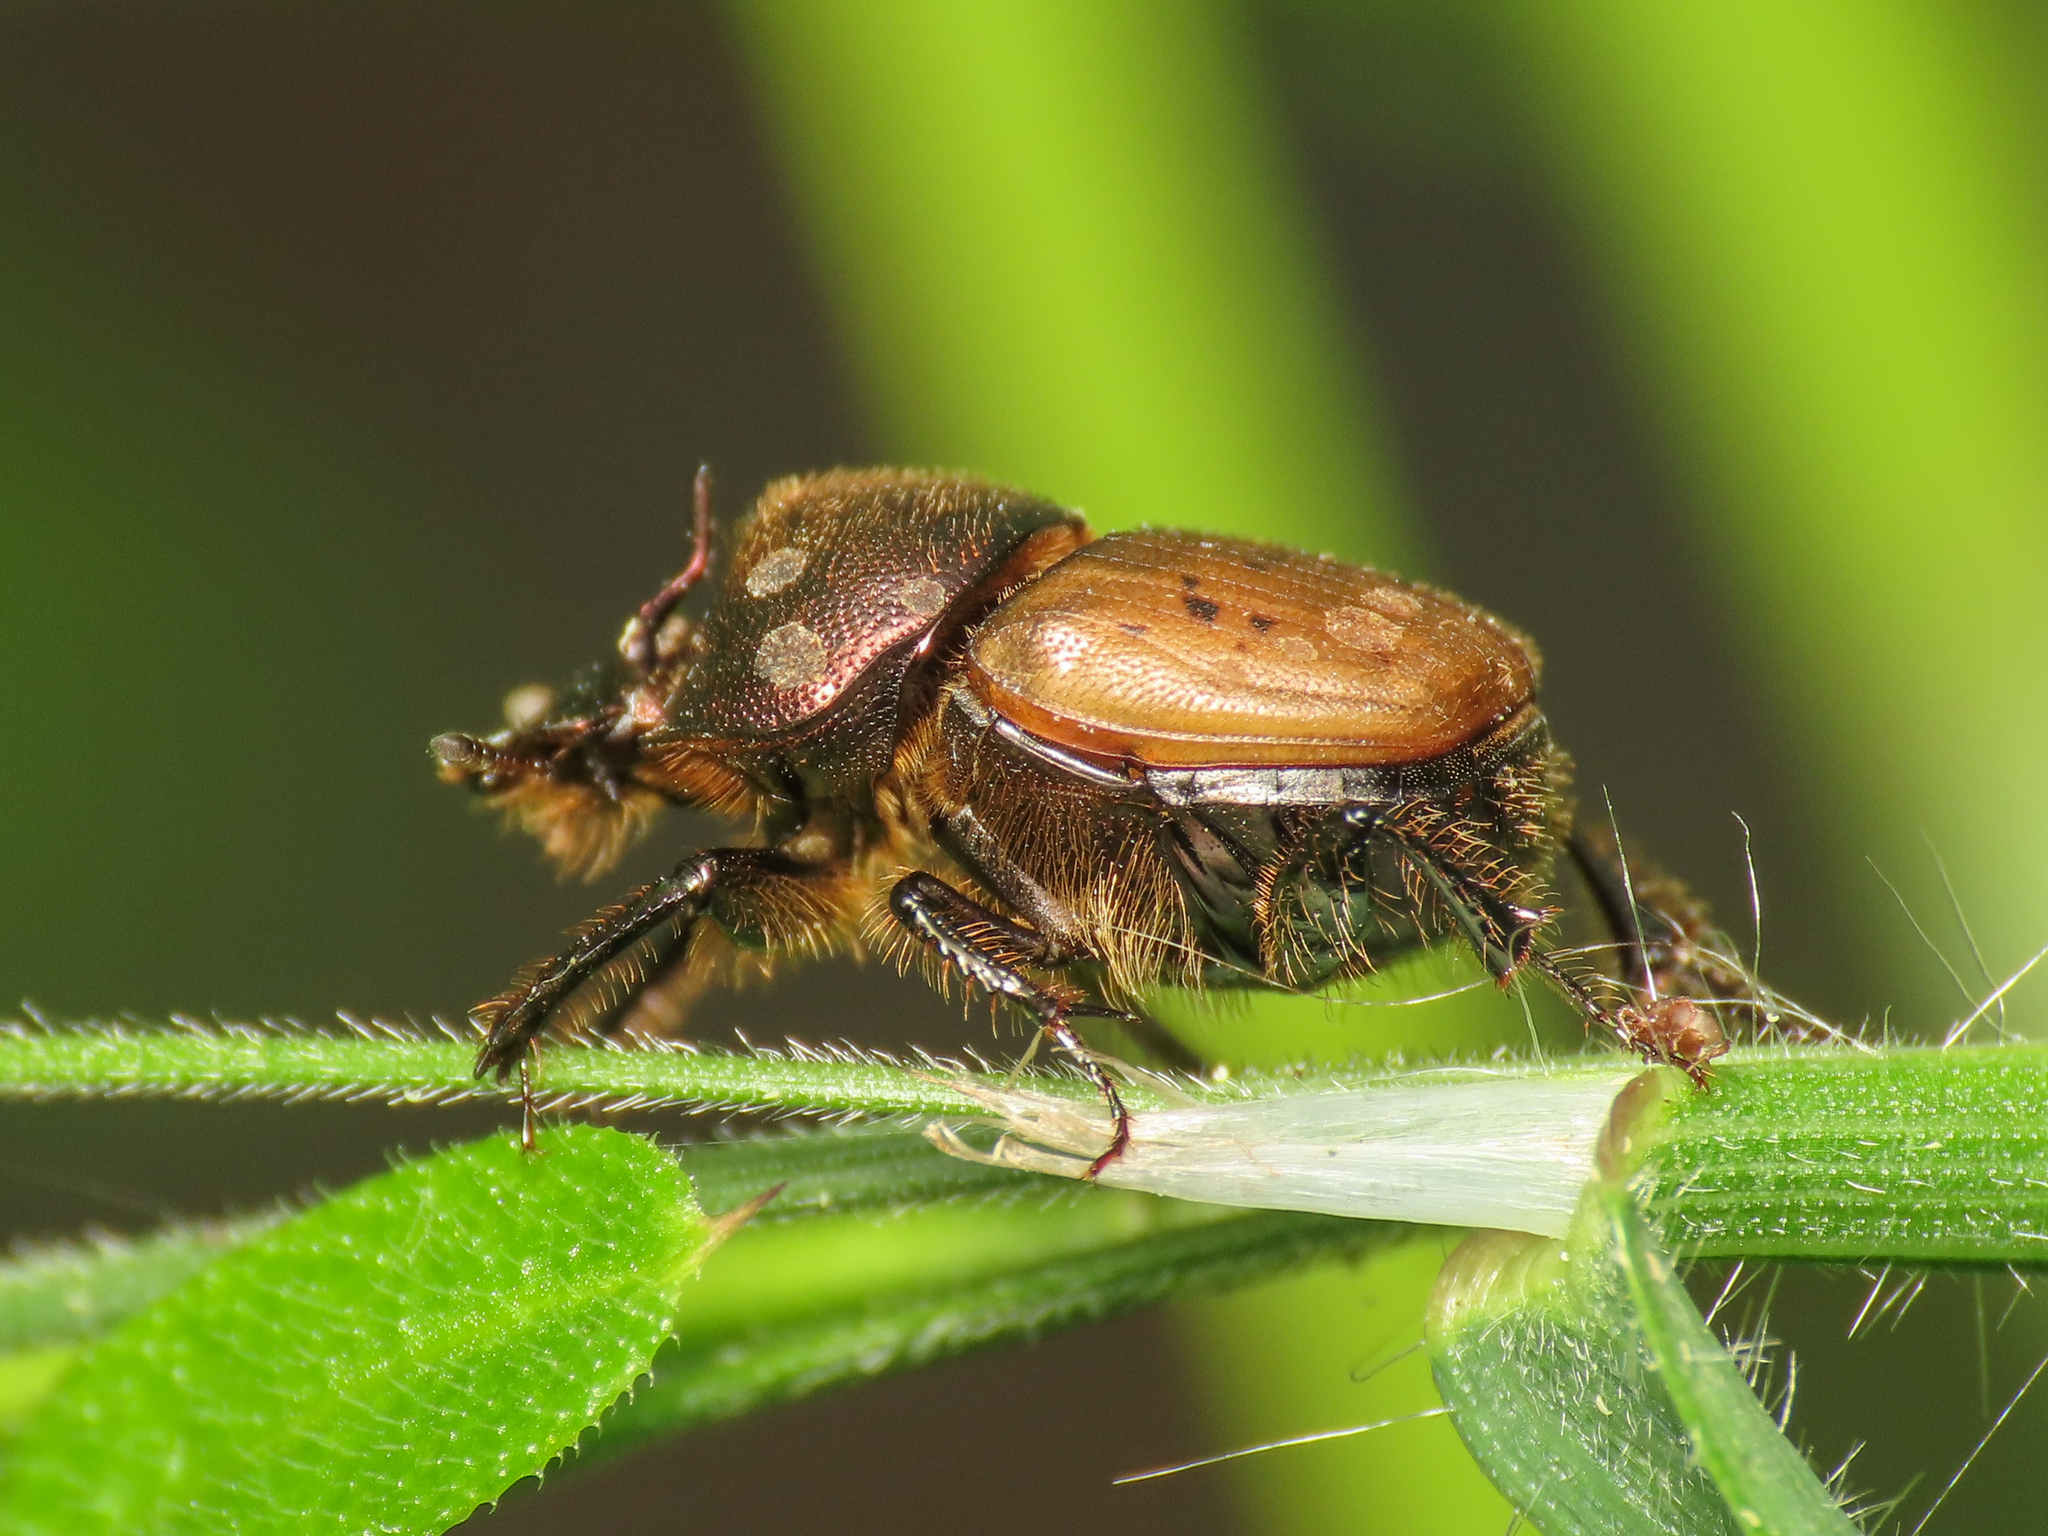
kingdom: Animalia
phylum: Arthropoda
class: Insecta
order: Coleoptera
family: Scarabaeidae
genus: Onthophagus
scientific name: Onthophagus coenobita
